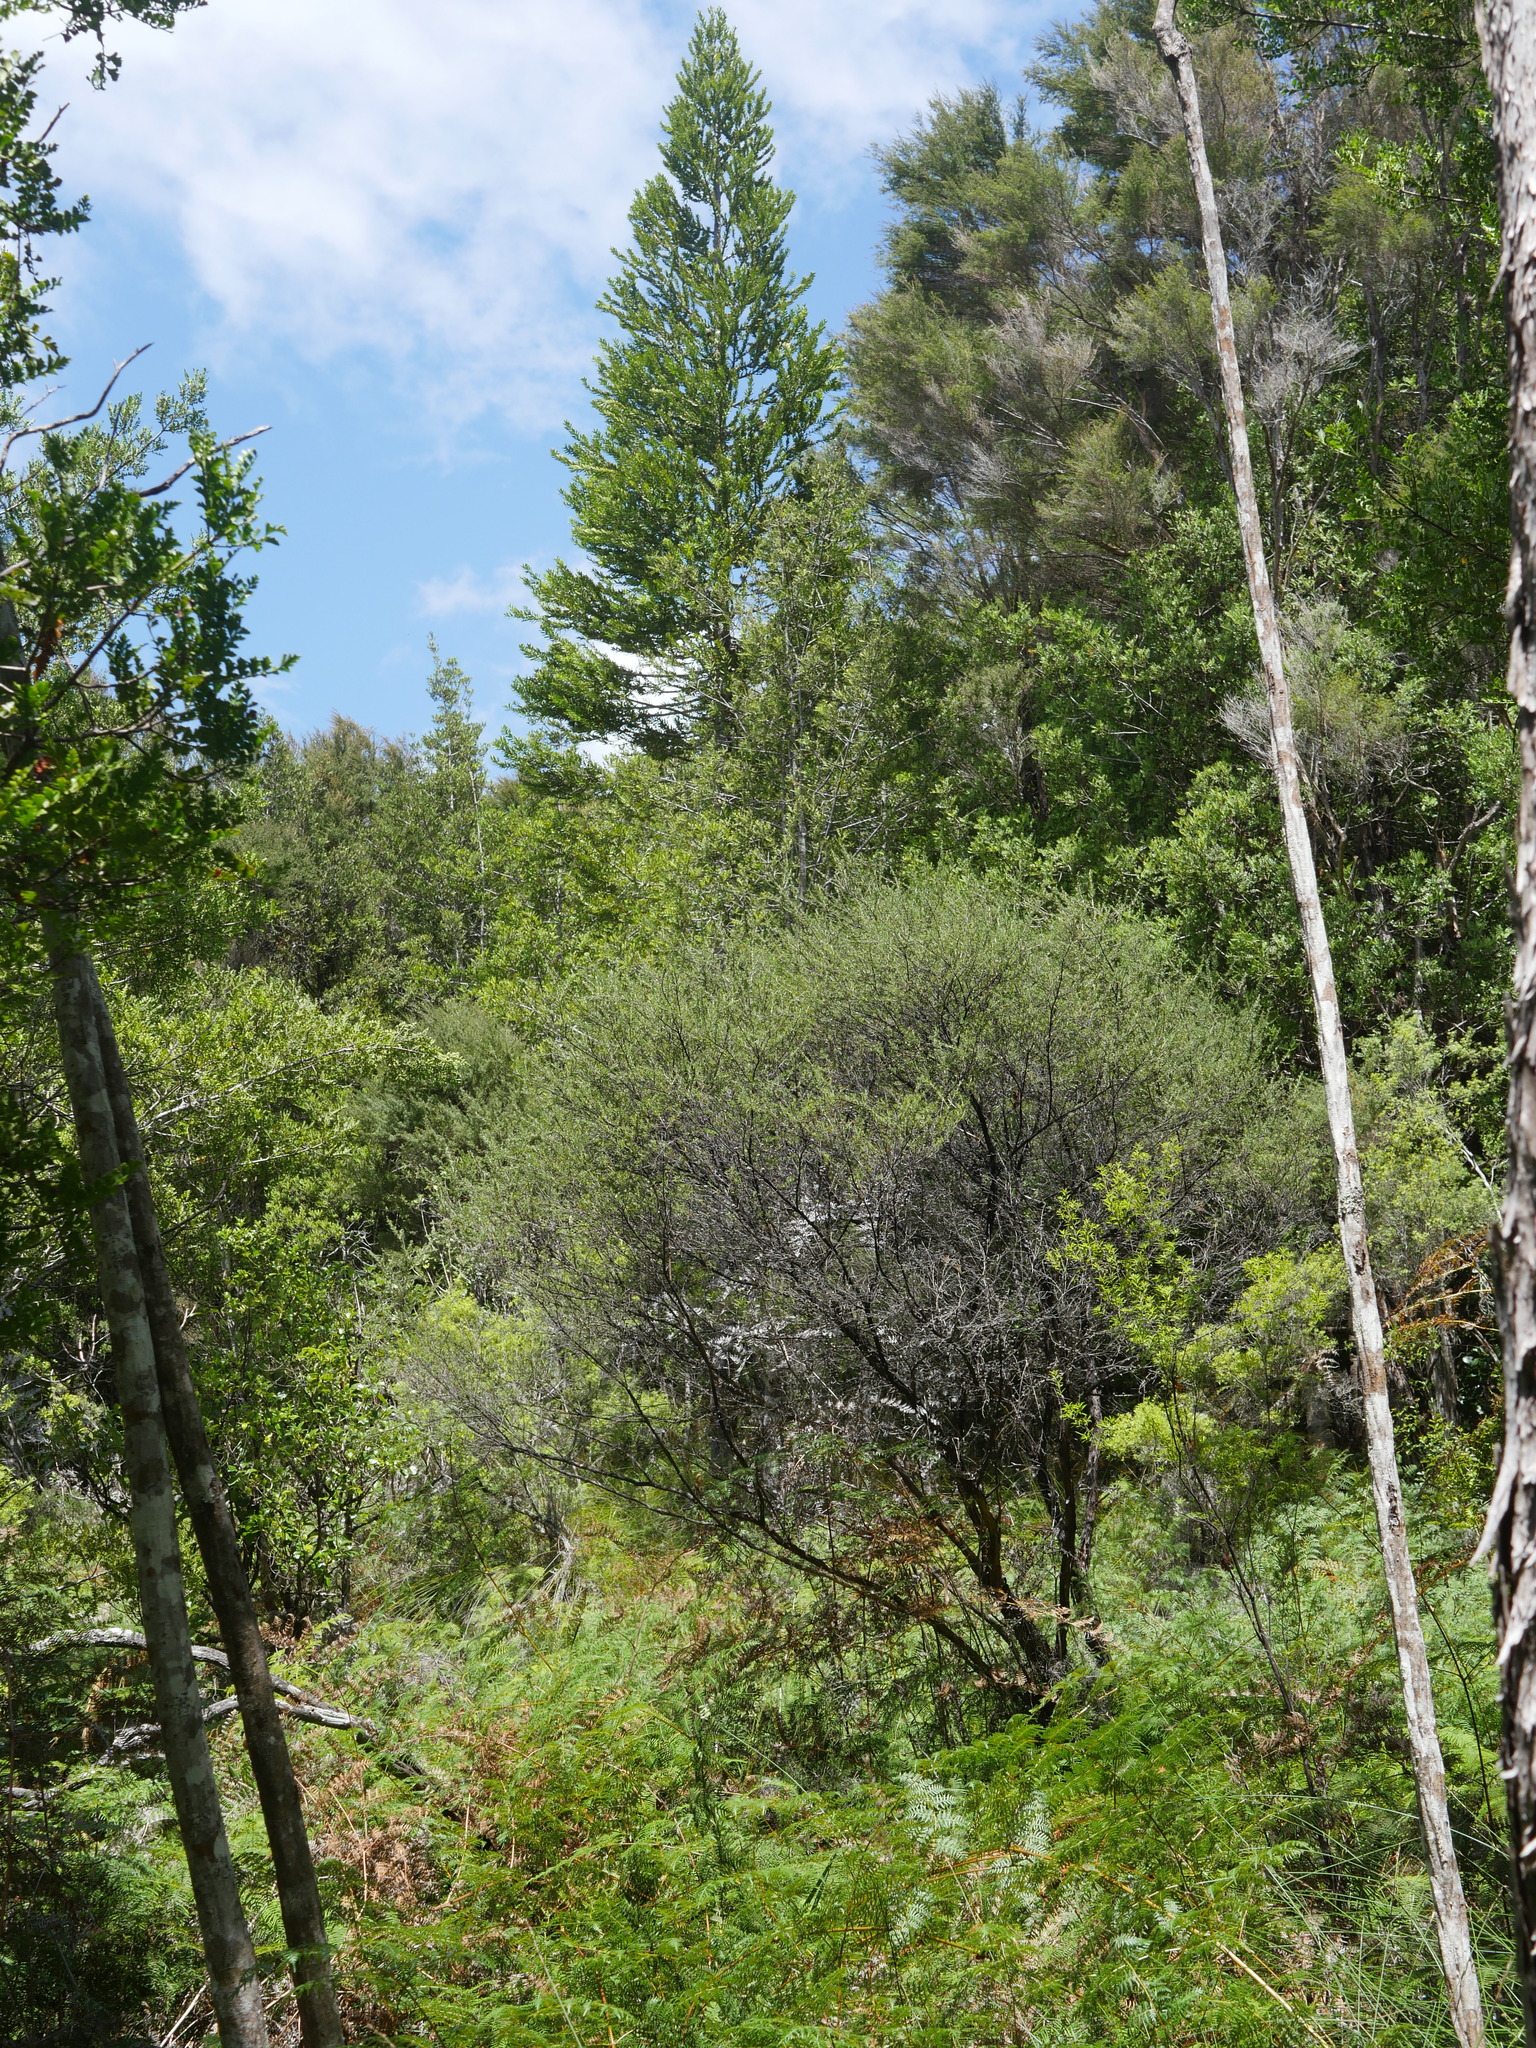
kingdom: Plantae
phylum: Tracheophyta
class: Pinopsida
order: Pinales
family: Araucariaceae
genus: Agathis
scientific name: Agathis australis
